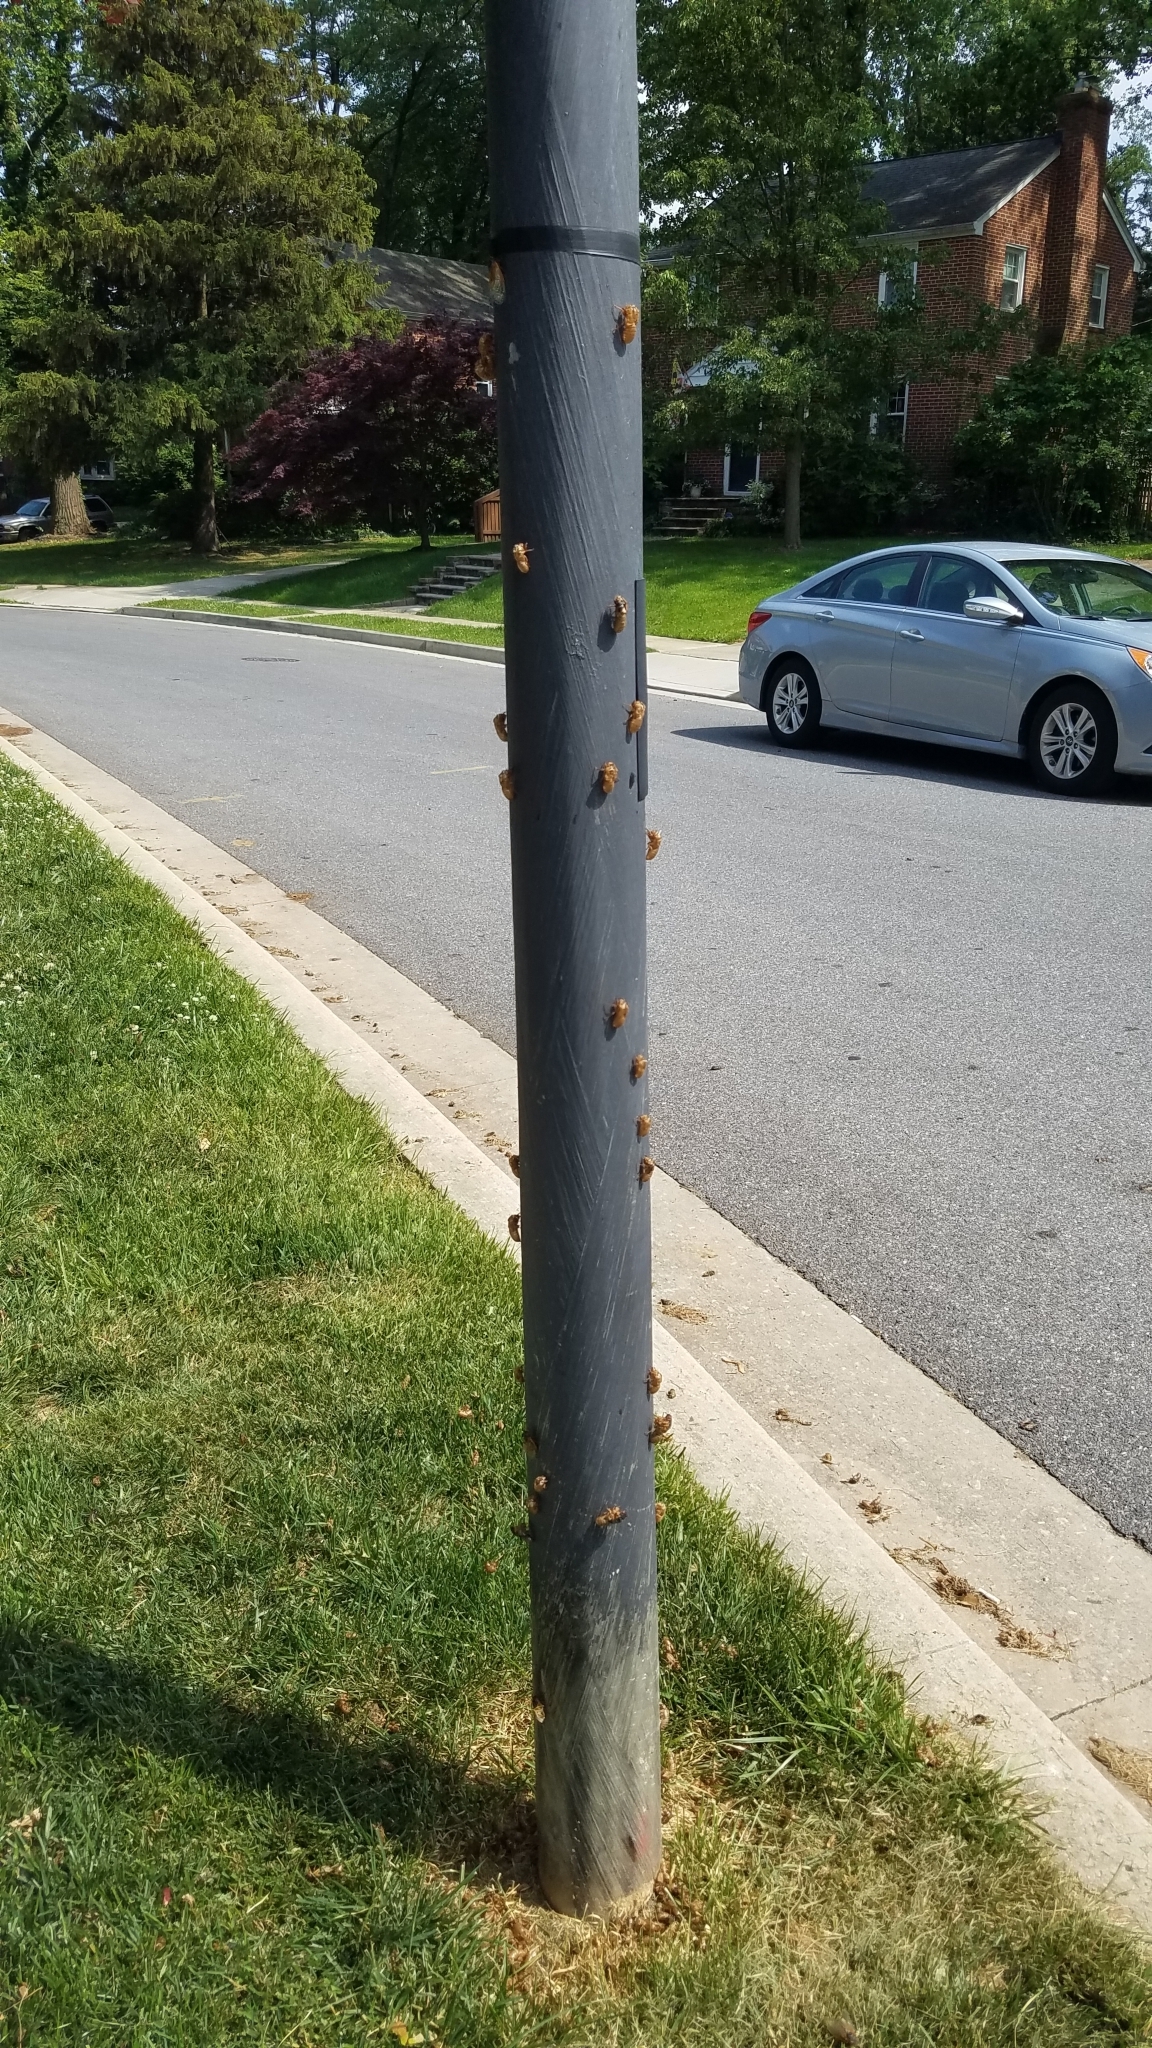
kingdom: Animalia
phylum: Arthropoda
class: Insecta
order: Hemiptera
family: Cicadidae
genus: Magicicada
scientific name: Magicicada
